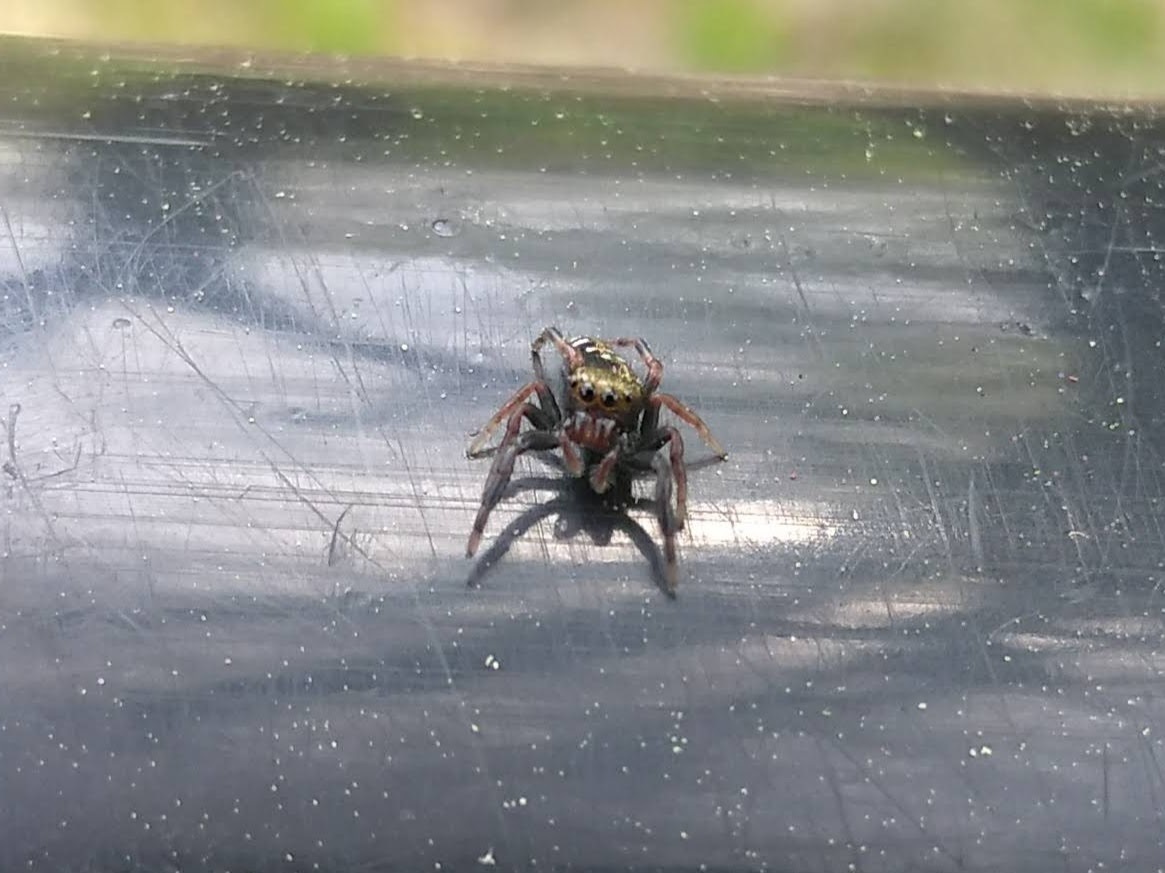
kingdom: Animalia
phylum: Arthropoda
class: Arachnida
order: Araneae
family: Salticidae
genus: Paraphidippus
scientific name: Paraphidippus aurantius
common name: Jumping spiders
